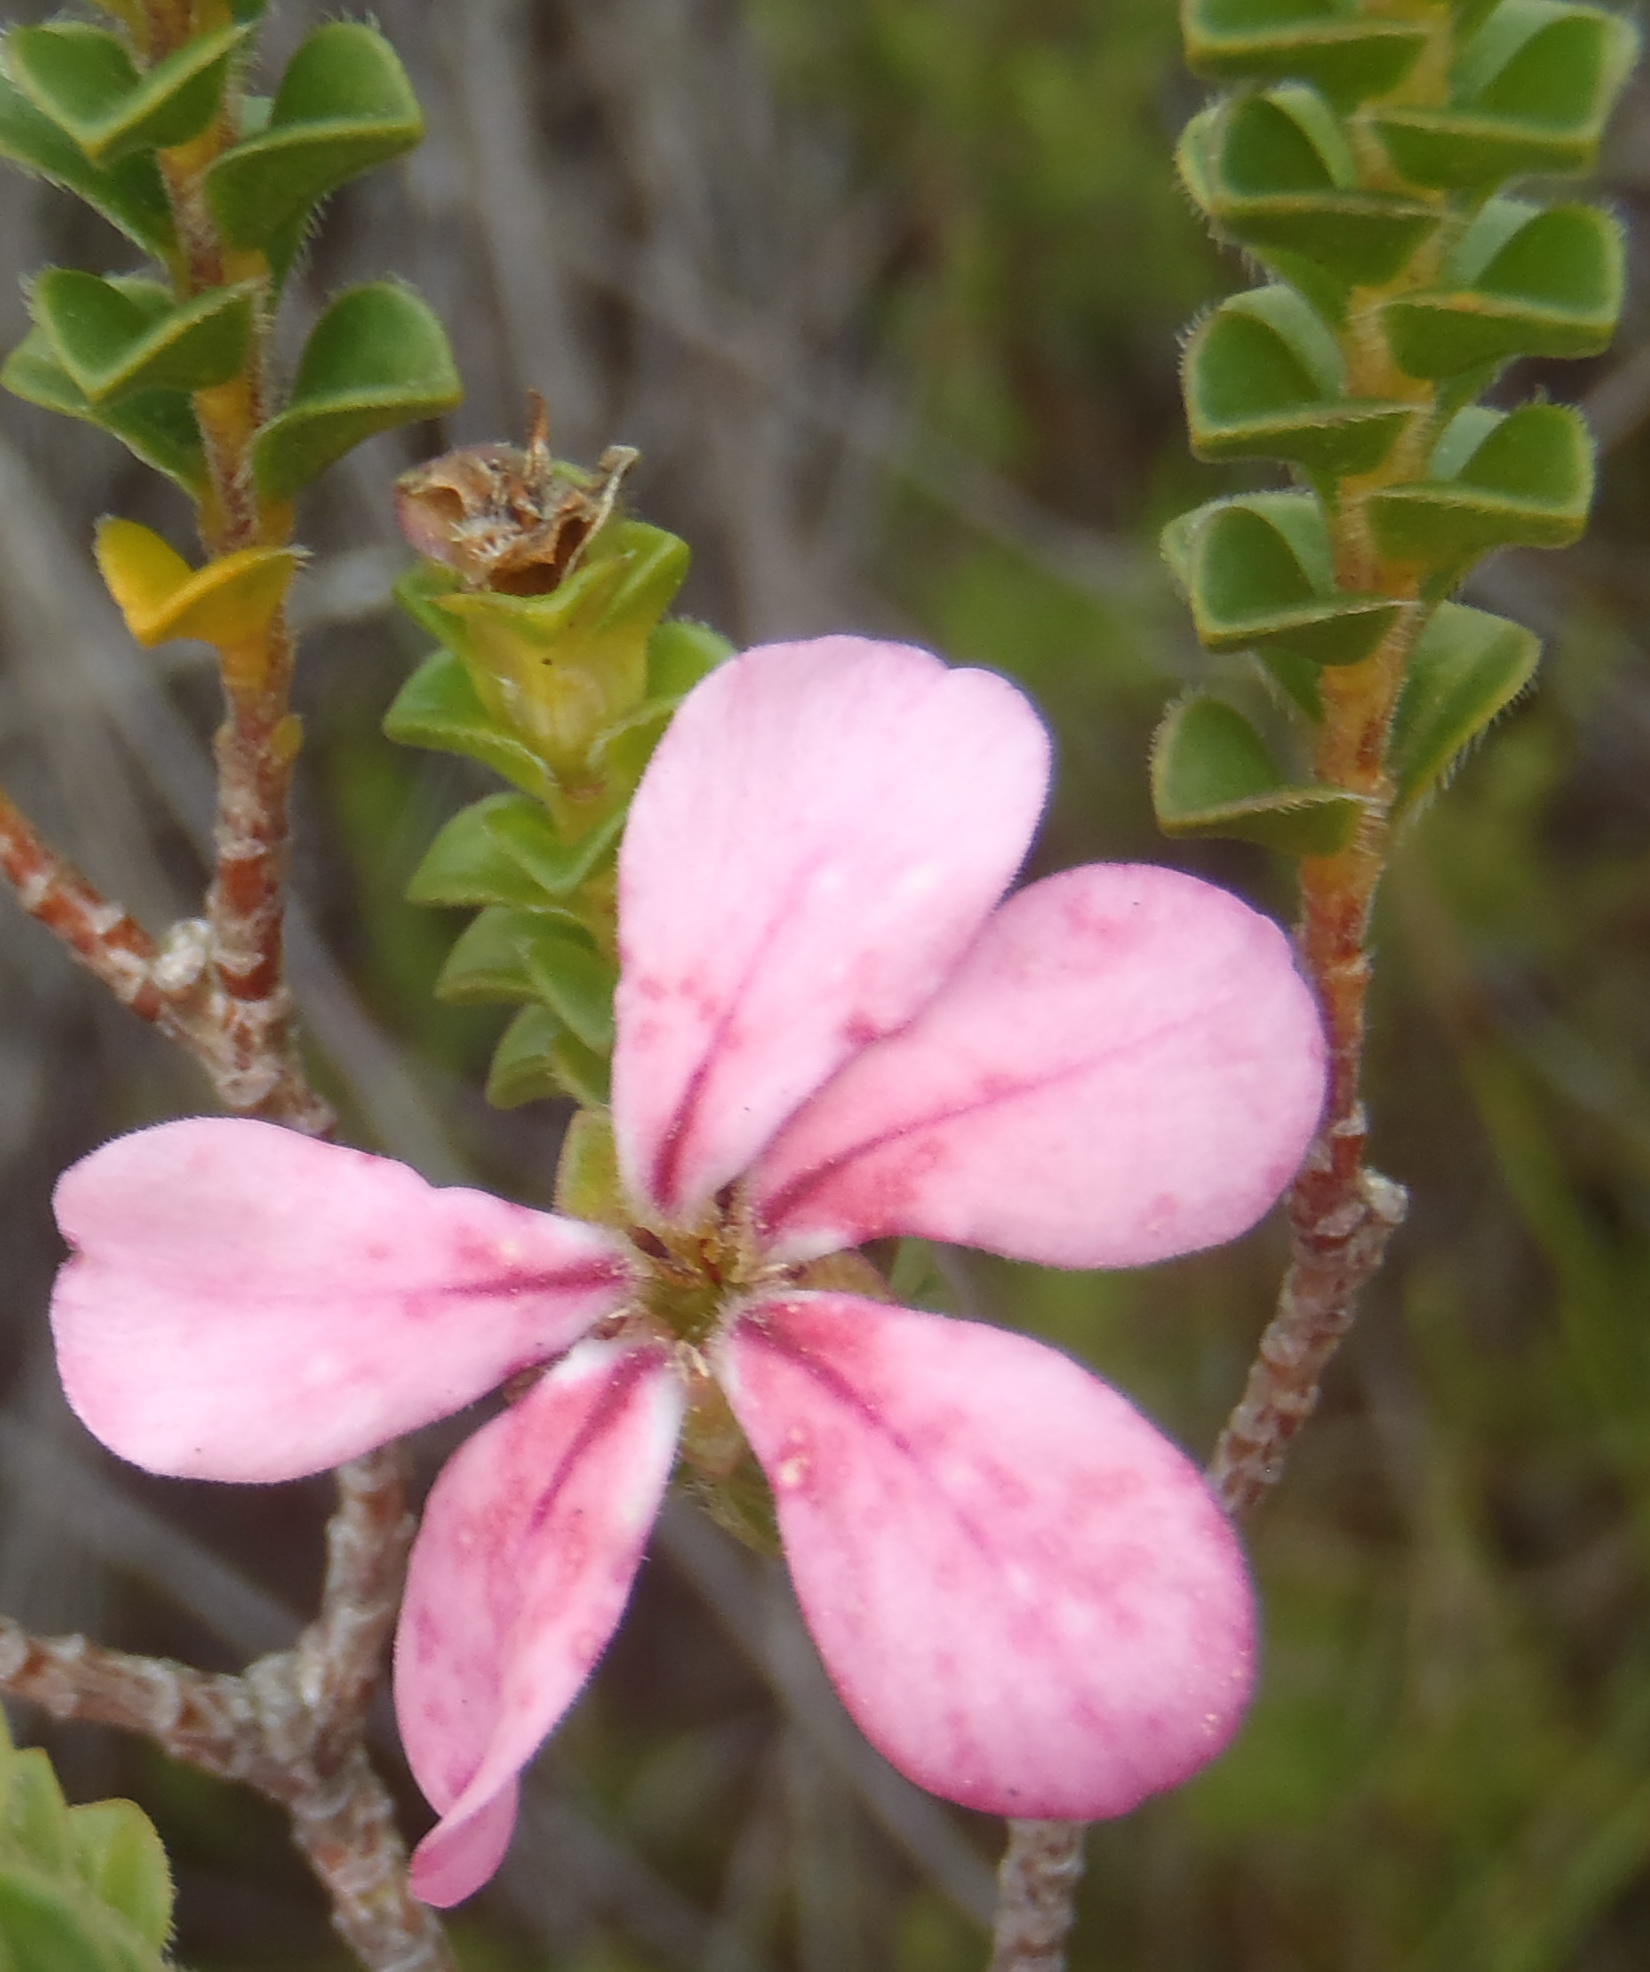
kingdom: Plantae
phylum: Tracheophyta
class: Magnoliopsida
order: Sapindales
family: Rutaceae
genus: Acmadenia
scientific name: Acmadenia tetragona
